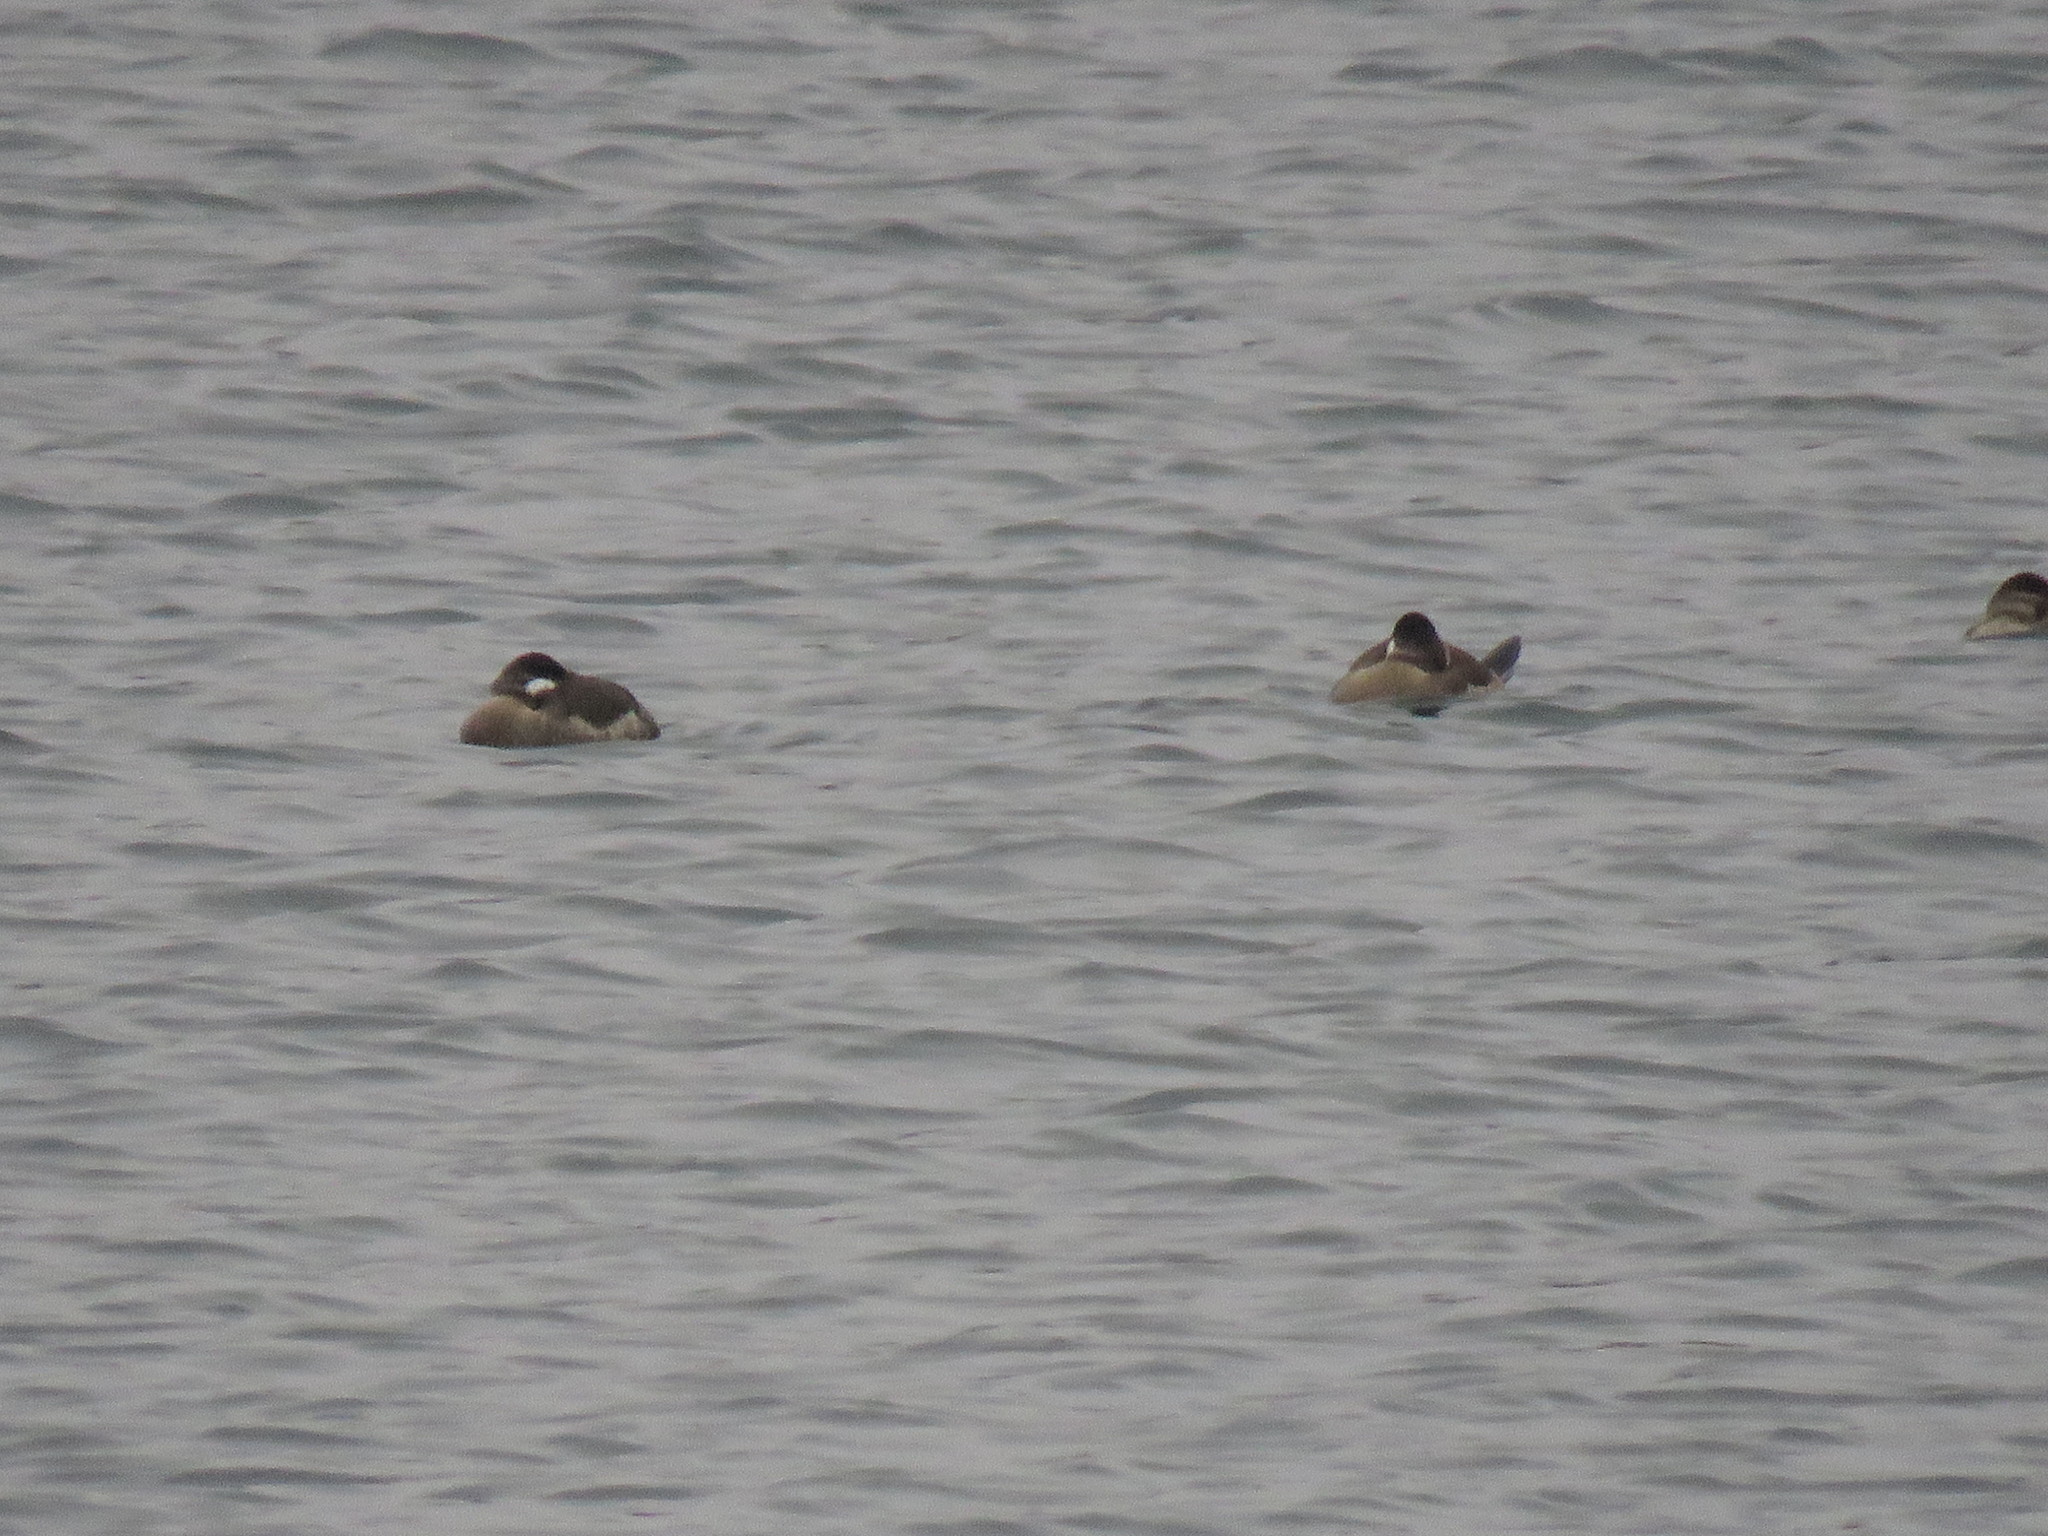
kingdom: Animalia
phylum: Chordata
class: Aves
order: Anseriformes
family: Anatidae
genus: Oxyura
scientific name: Oxyura jamaicensis
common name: Ruddy duck
